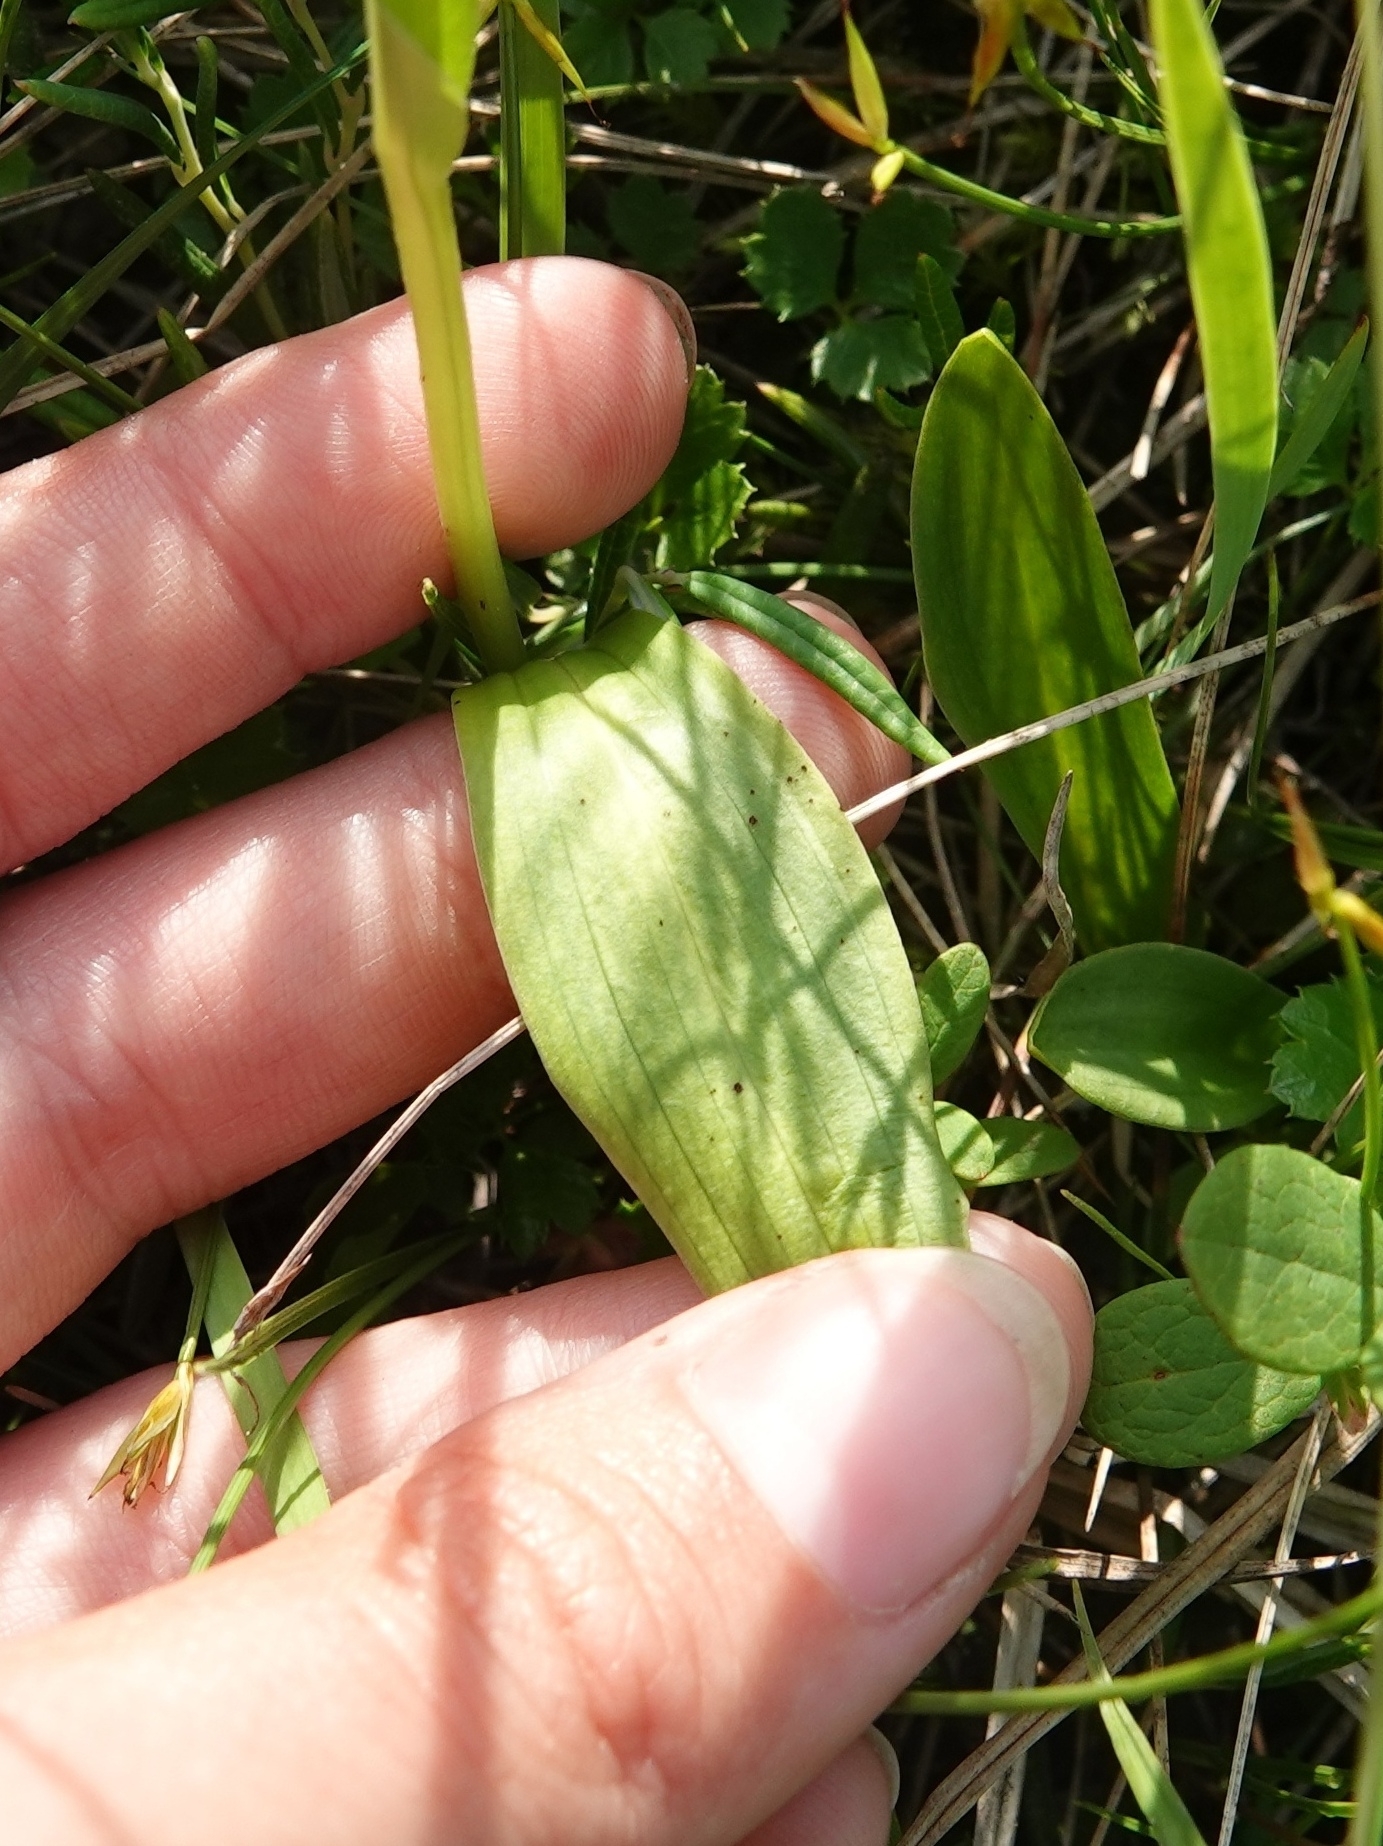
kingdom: Plantae
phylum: Tracheophyta
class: Liliopsida
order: Asparagales
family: Orchidaceae
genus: Platanthera
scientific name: Platanthera tipuloides
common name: Aleutian bog orchid
